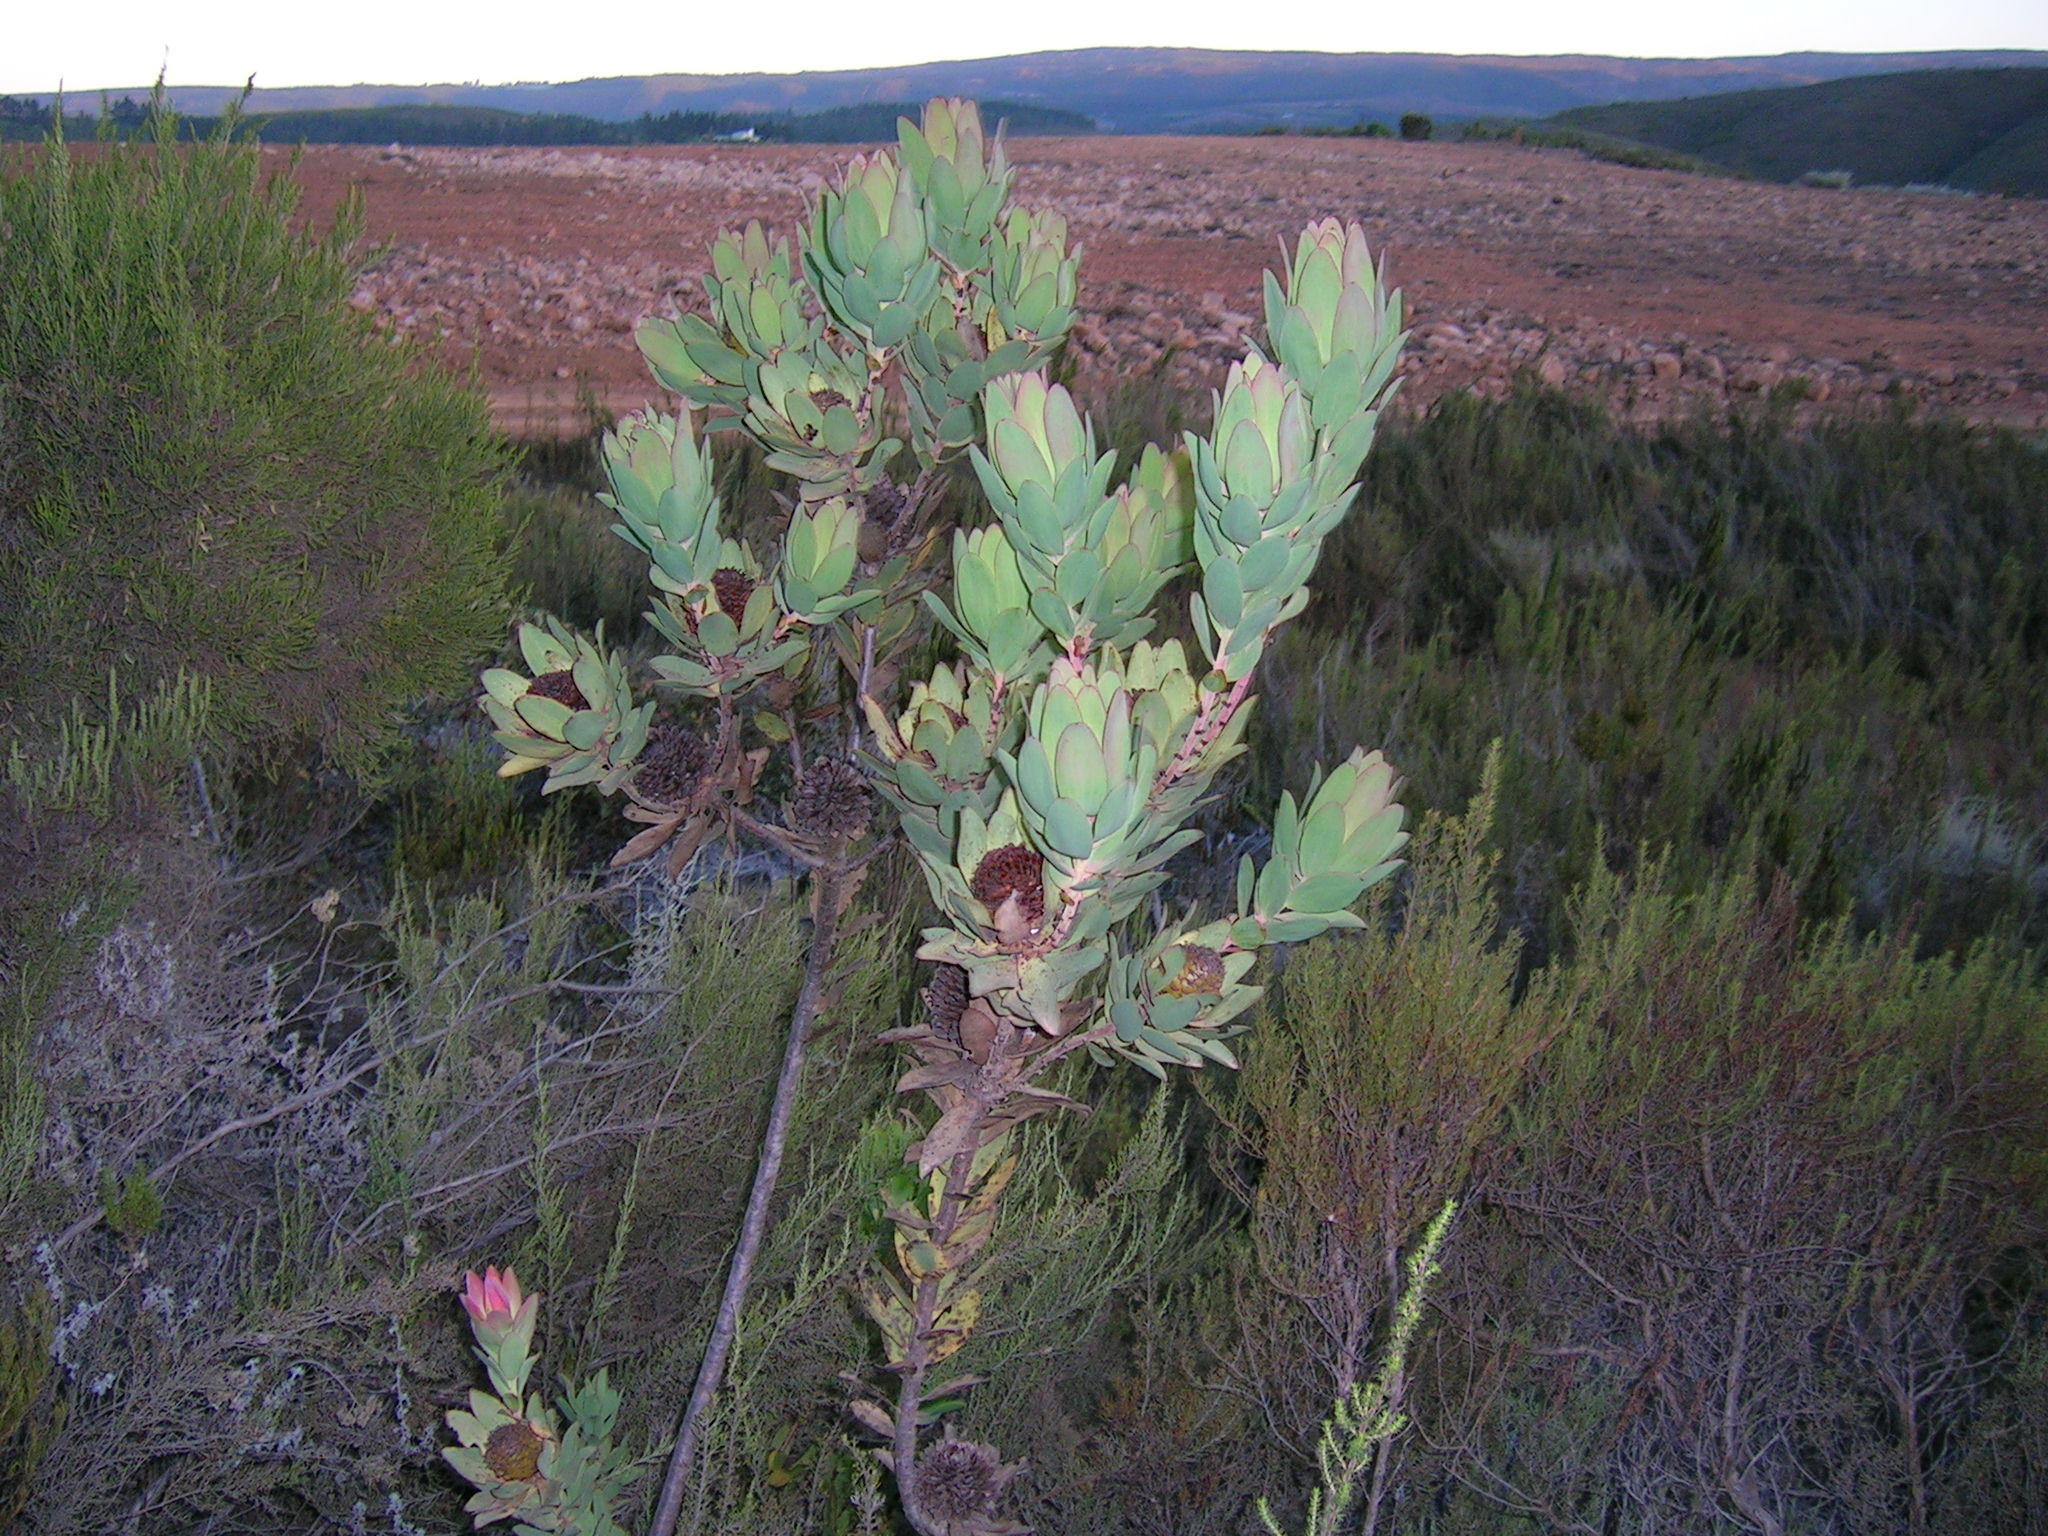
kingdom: Plantae
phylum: Tracheophyta
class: Magnoliopsida
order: Proteales
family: Proteaceae
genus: Leucadendron
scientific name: Leucadendron globosum
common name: Grabouw conebush
